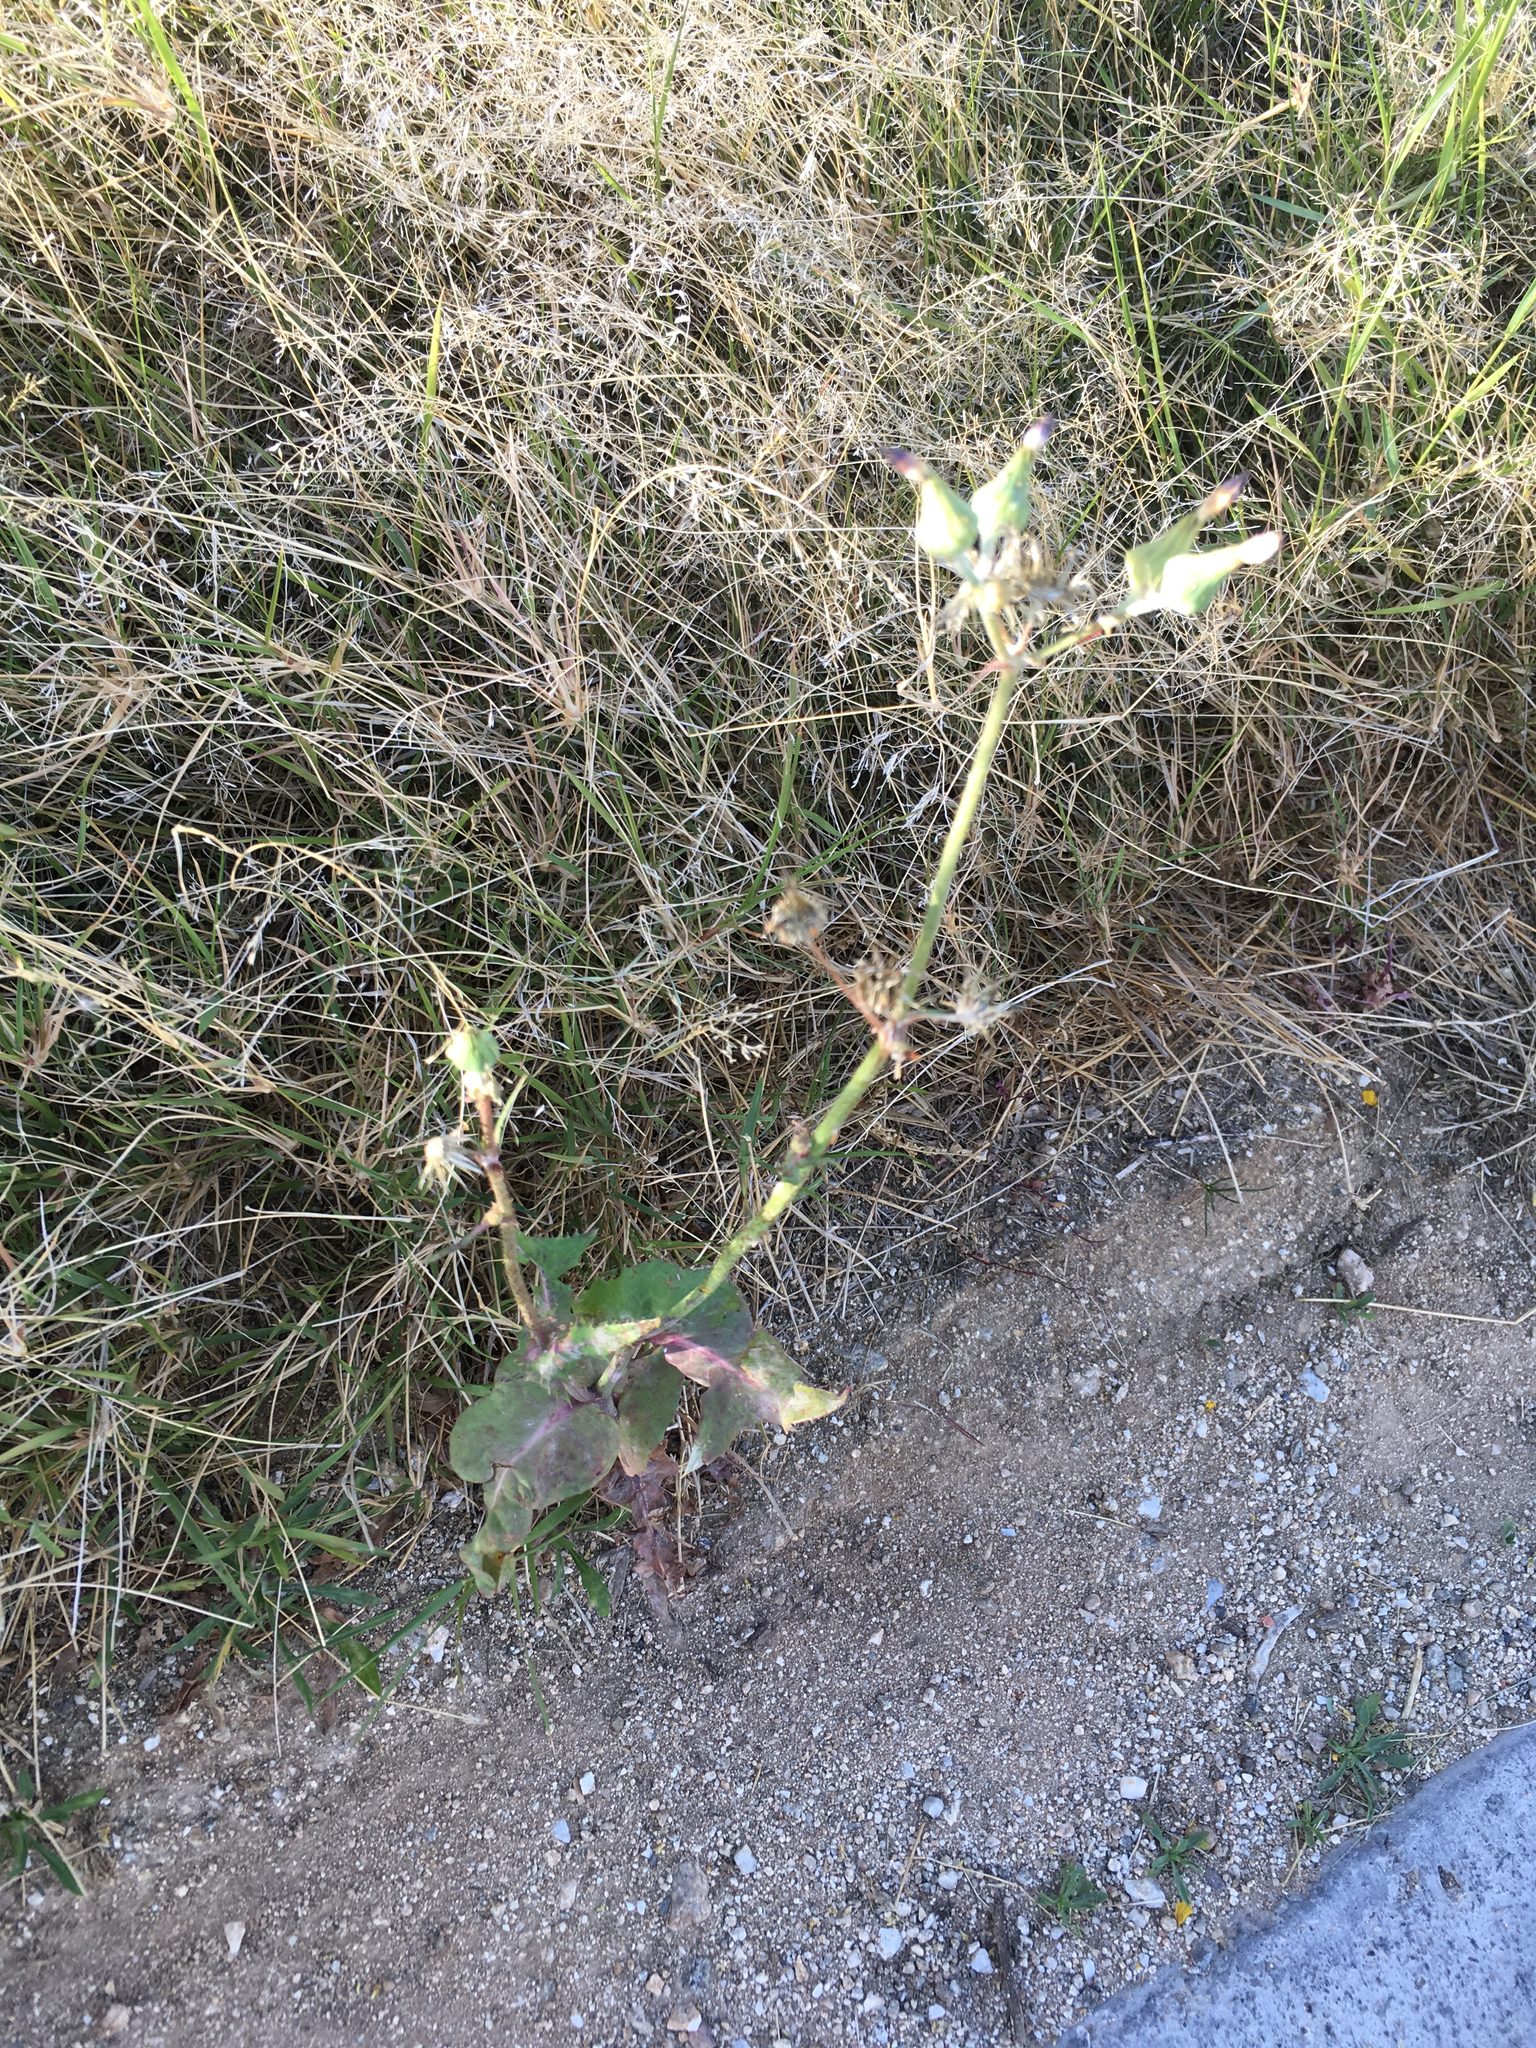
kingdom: Plantae
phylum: Tracheophyta
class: Magnoliopsida
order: Asterales
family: Asteraceae
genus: Sonchus
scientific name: Sonchus oleraceus
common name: Common sowthistle
